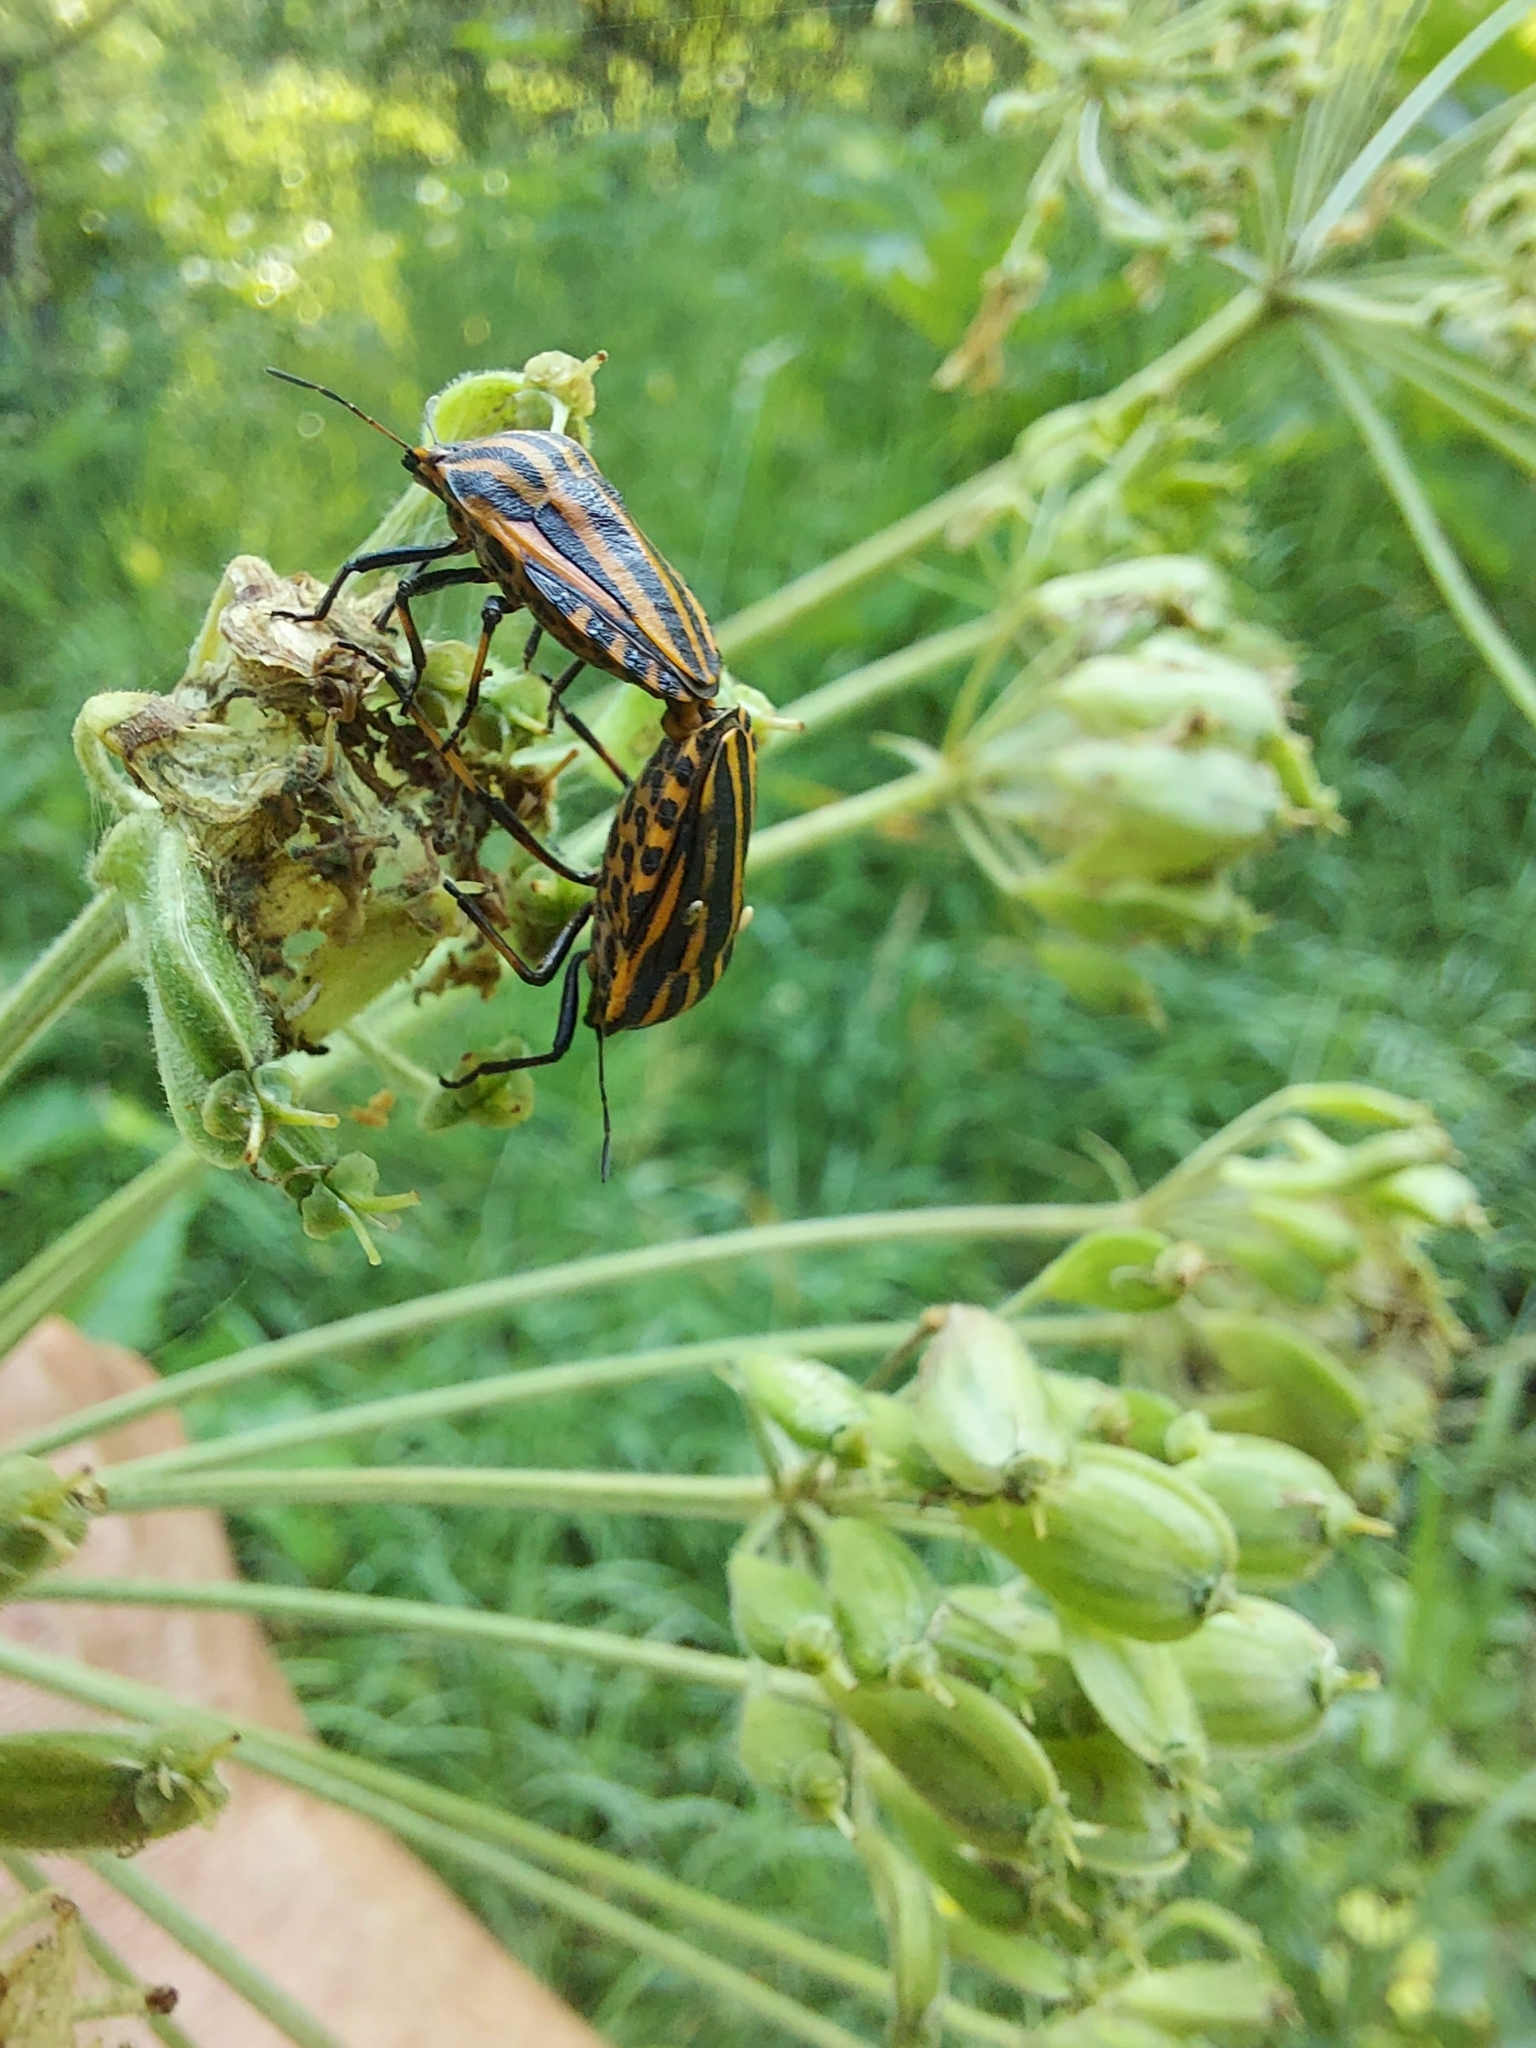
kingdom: Animalia
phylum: Arthropoda
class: Insecta
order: Hemiptera
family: Pentatomidae
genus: Graphosoma
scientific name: Graphosoma italicum
